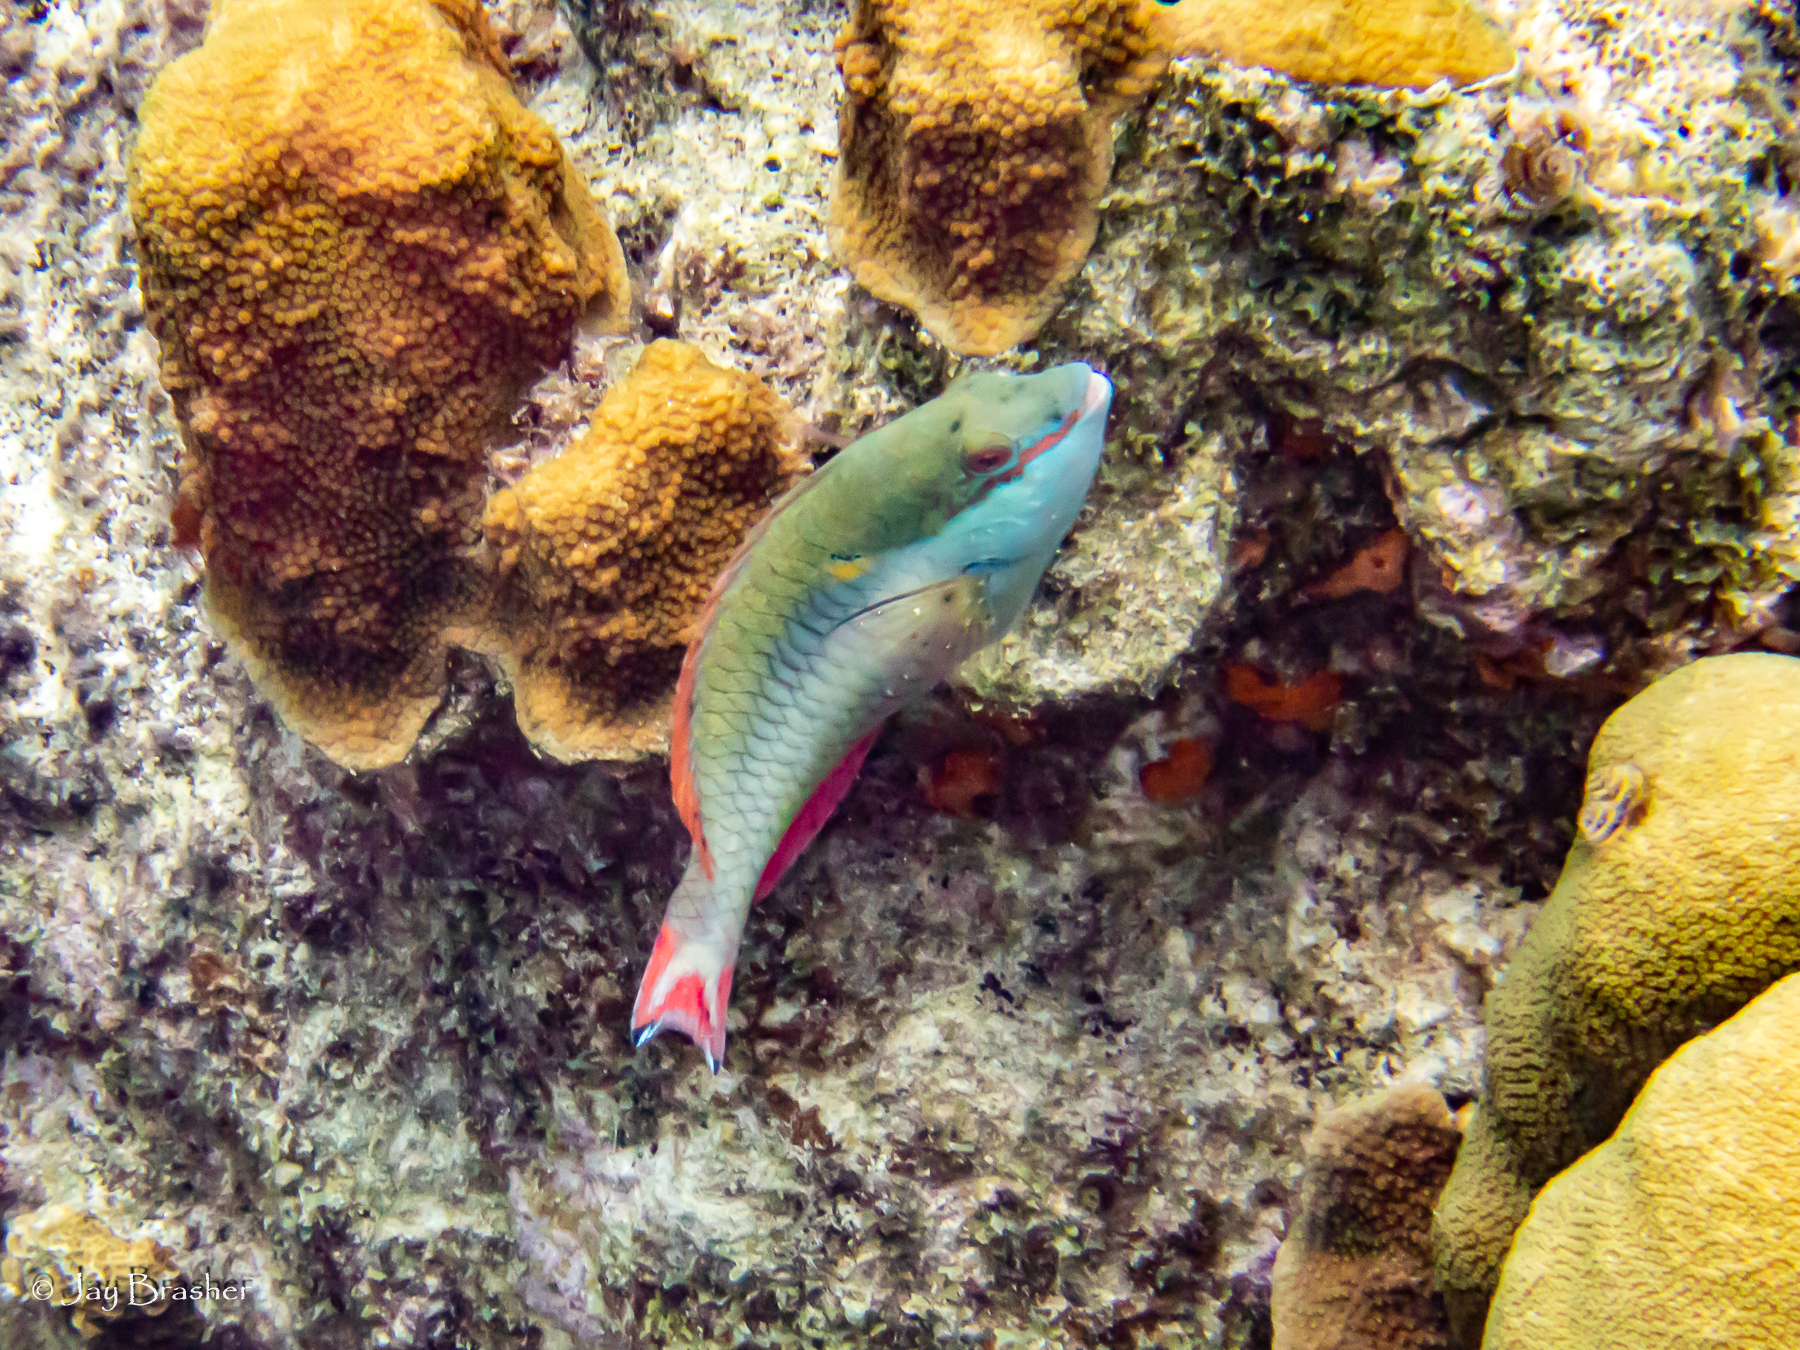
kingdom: Animalia
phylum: Chordata
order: Perciformes
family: Scaridae
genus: Sparisoma
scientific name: Sparisoma aurofrenatum
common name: Redband parrotfish
